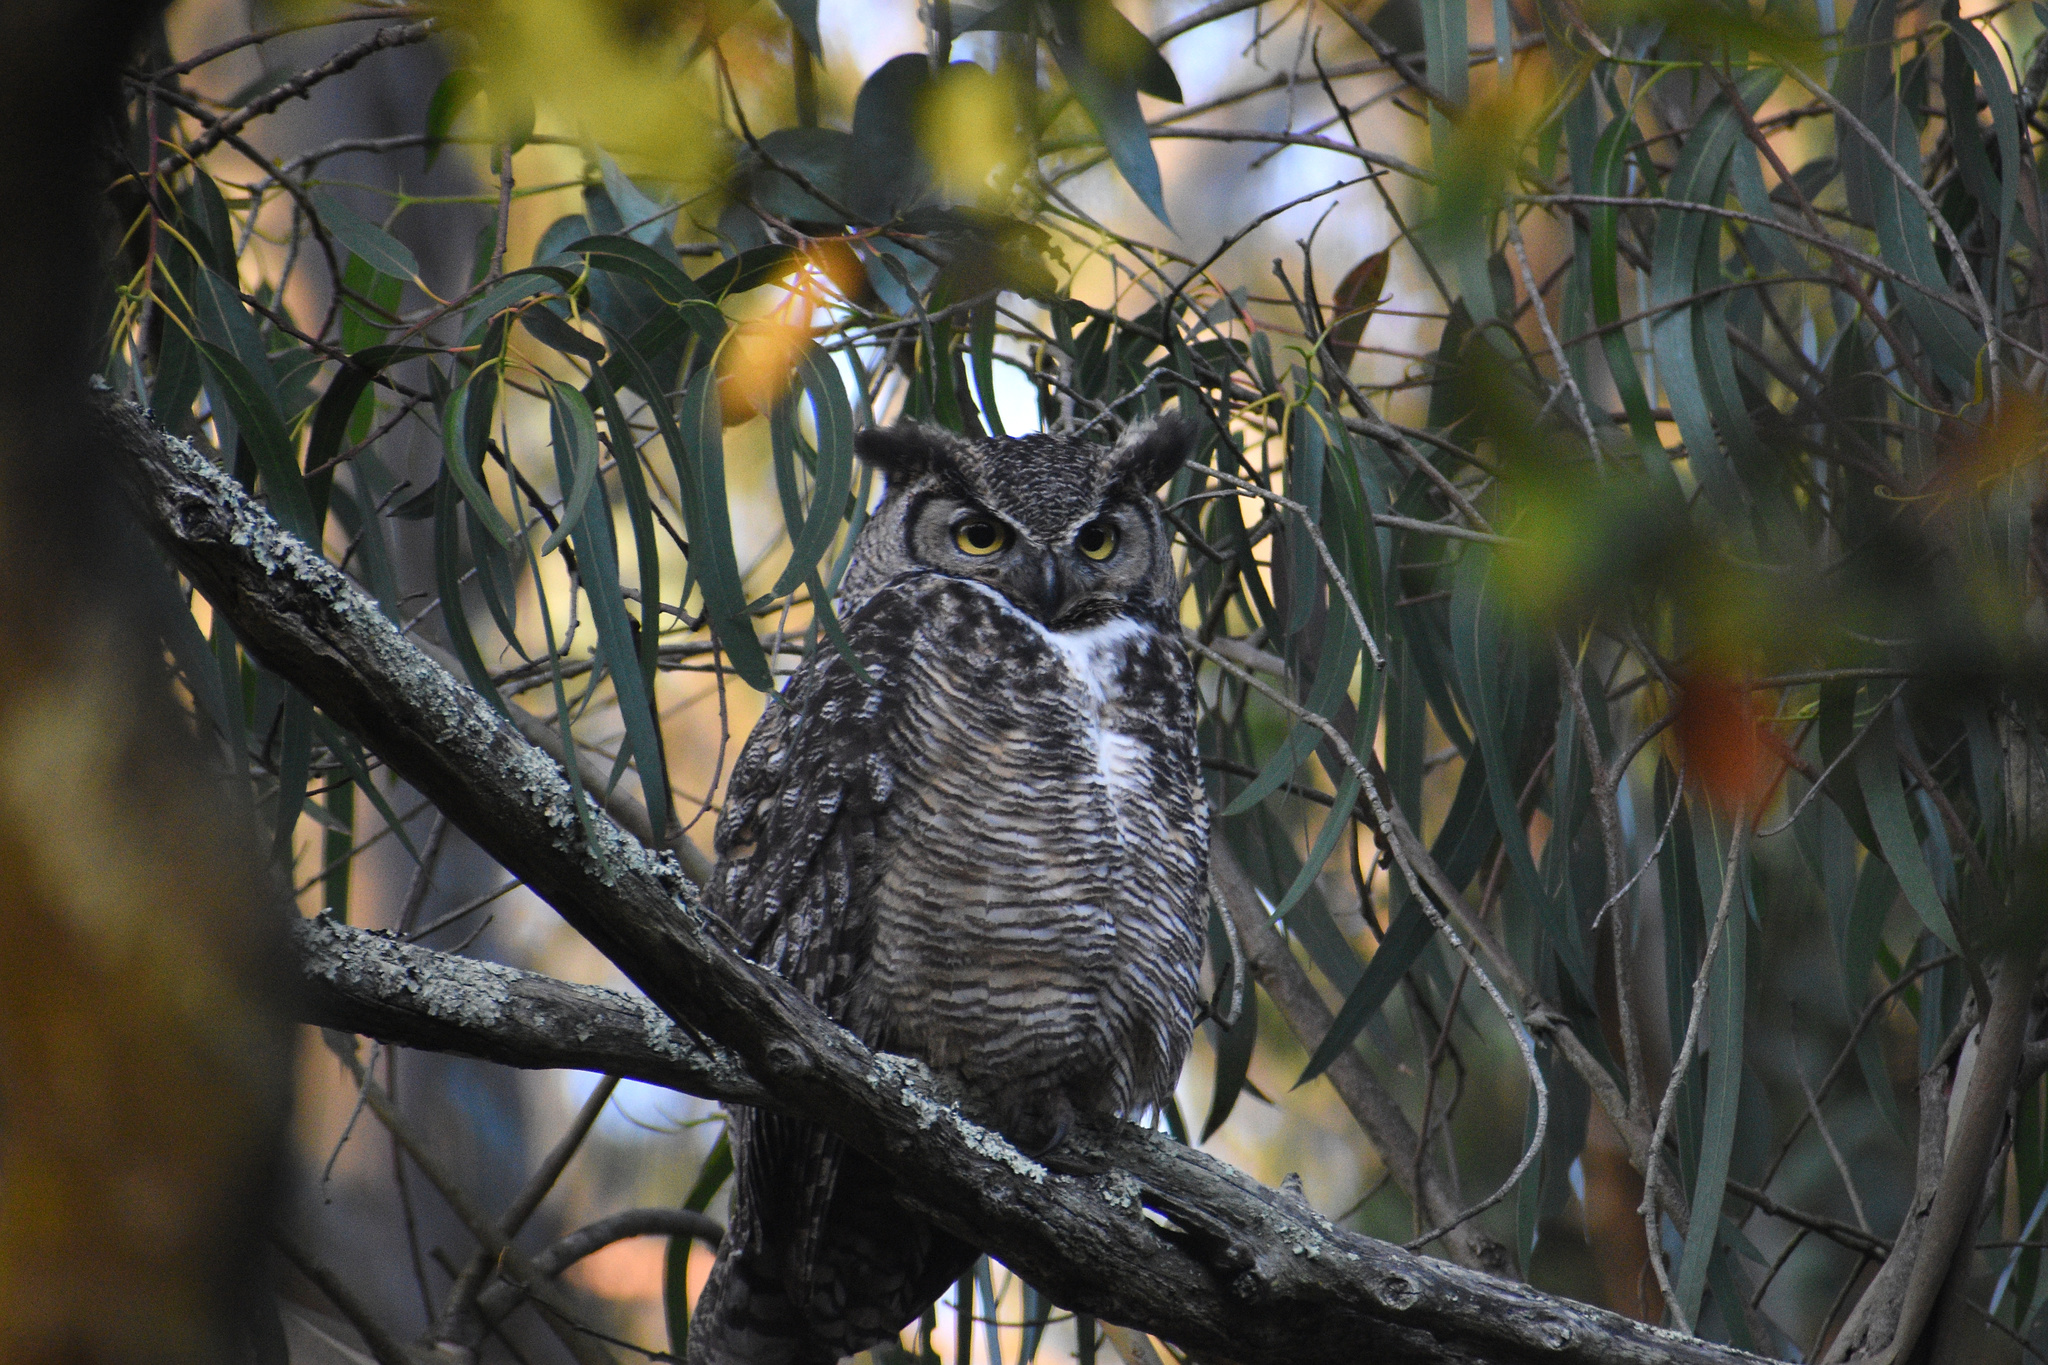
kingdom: Animalia
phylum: Chordata
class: Aves
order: Strigiformes
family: Strigidae
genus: Bubo
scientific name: Bubo virginianus
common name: Great horned owl
